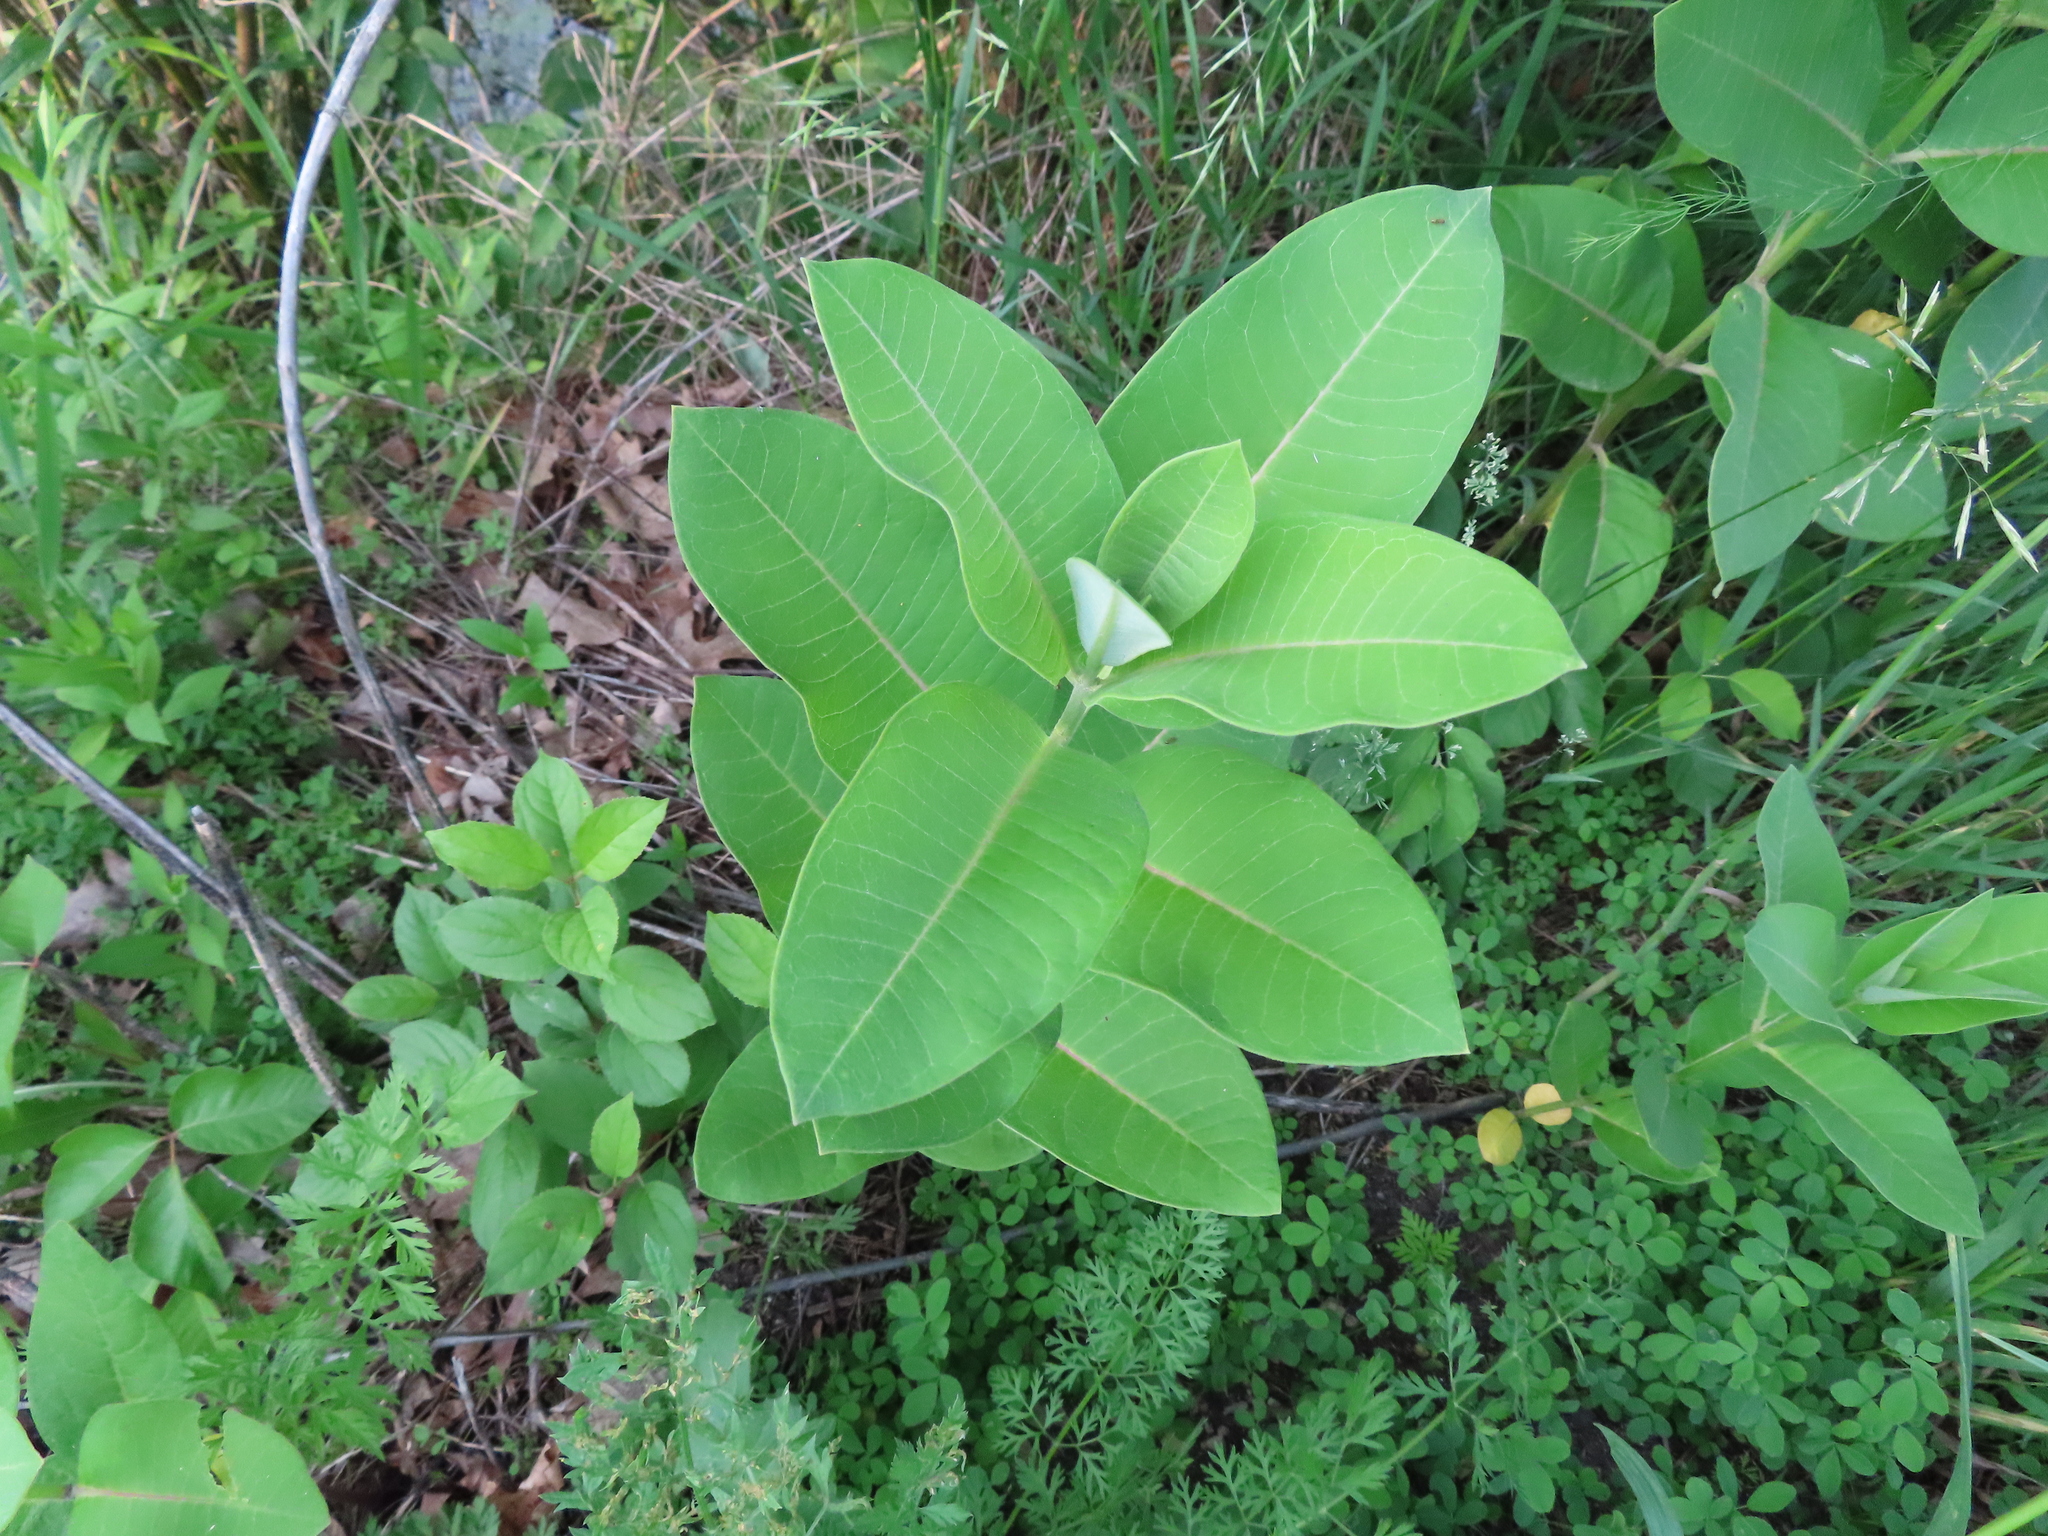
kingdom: Plantae
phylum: Tracheophyta
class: Magnoliopsida
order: Gentianales
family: Apocynaceae
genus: Asclepias
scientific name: Asclepias syriaca
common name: Common milkweed
